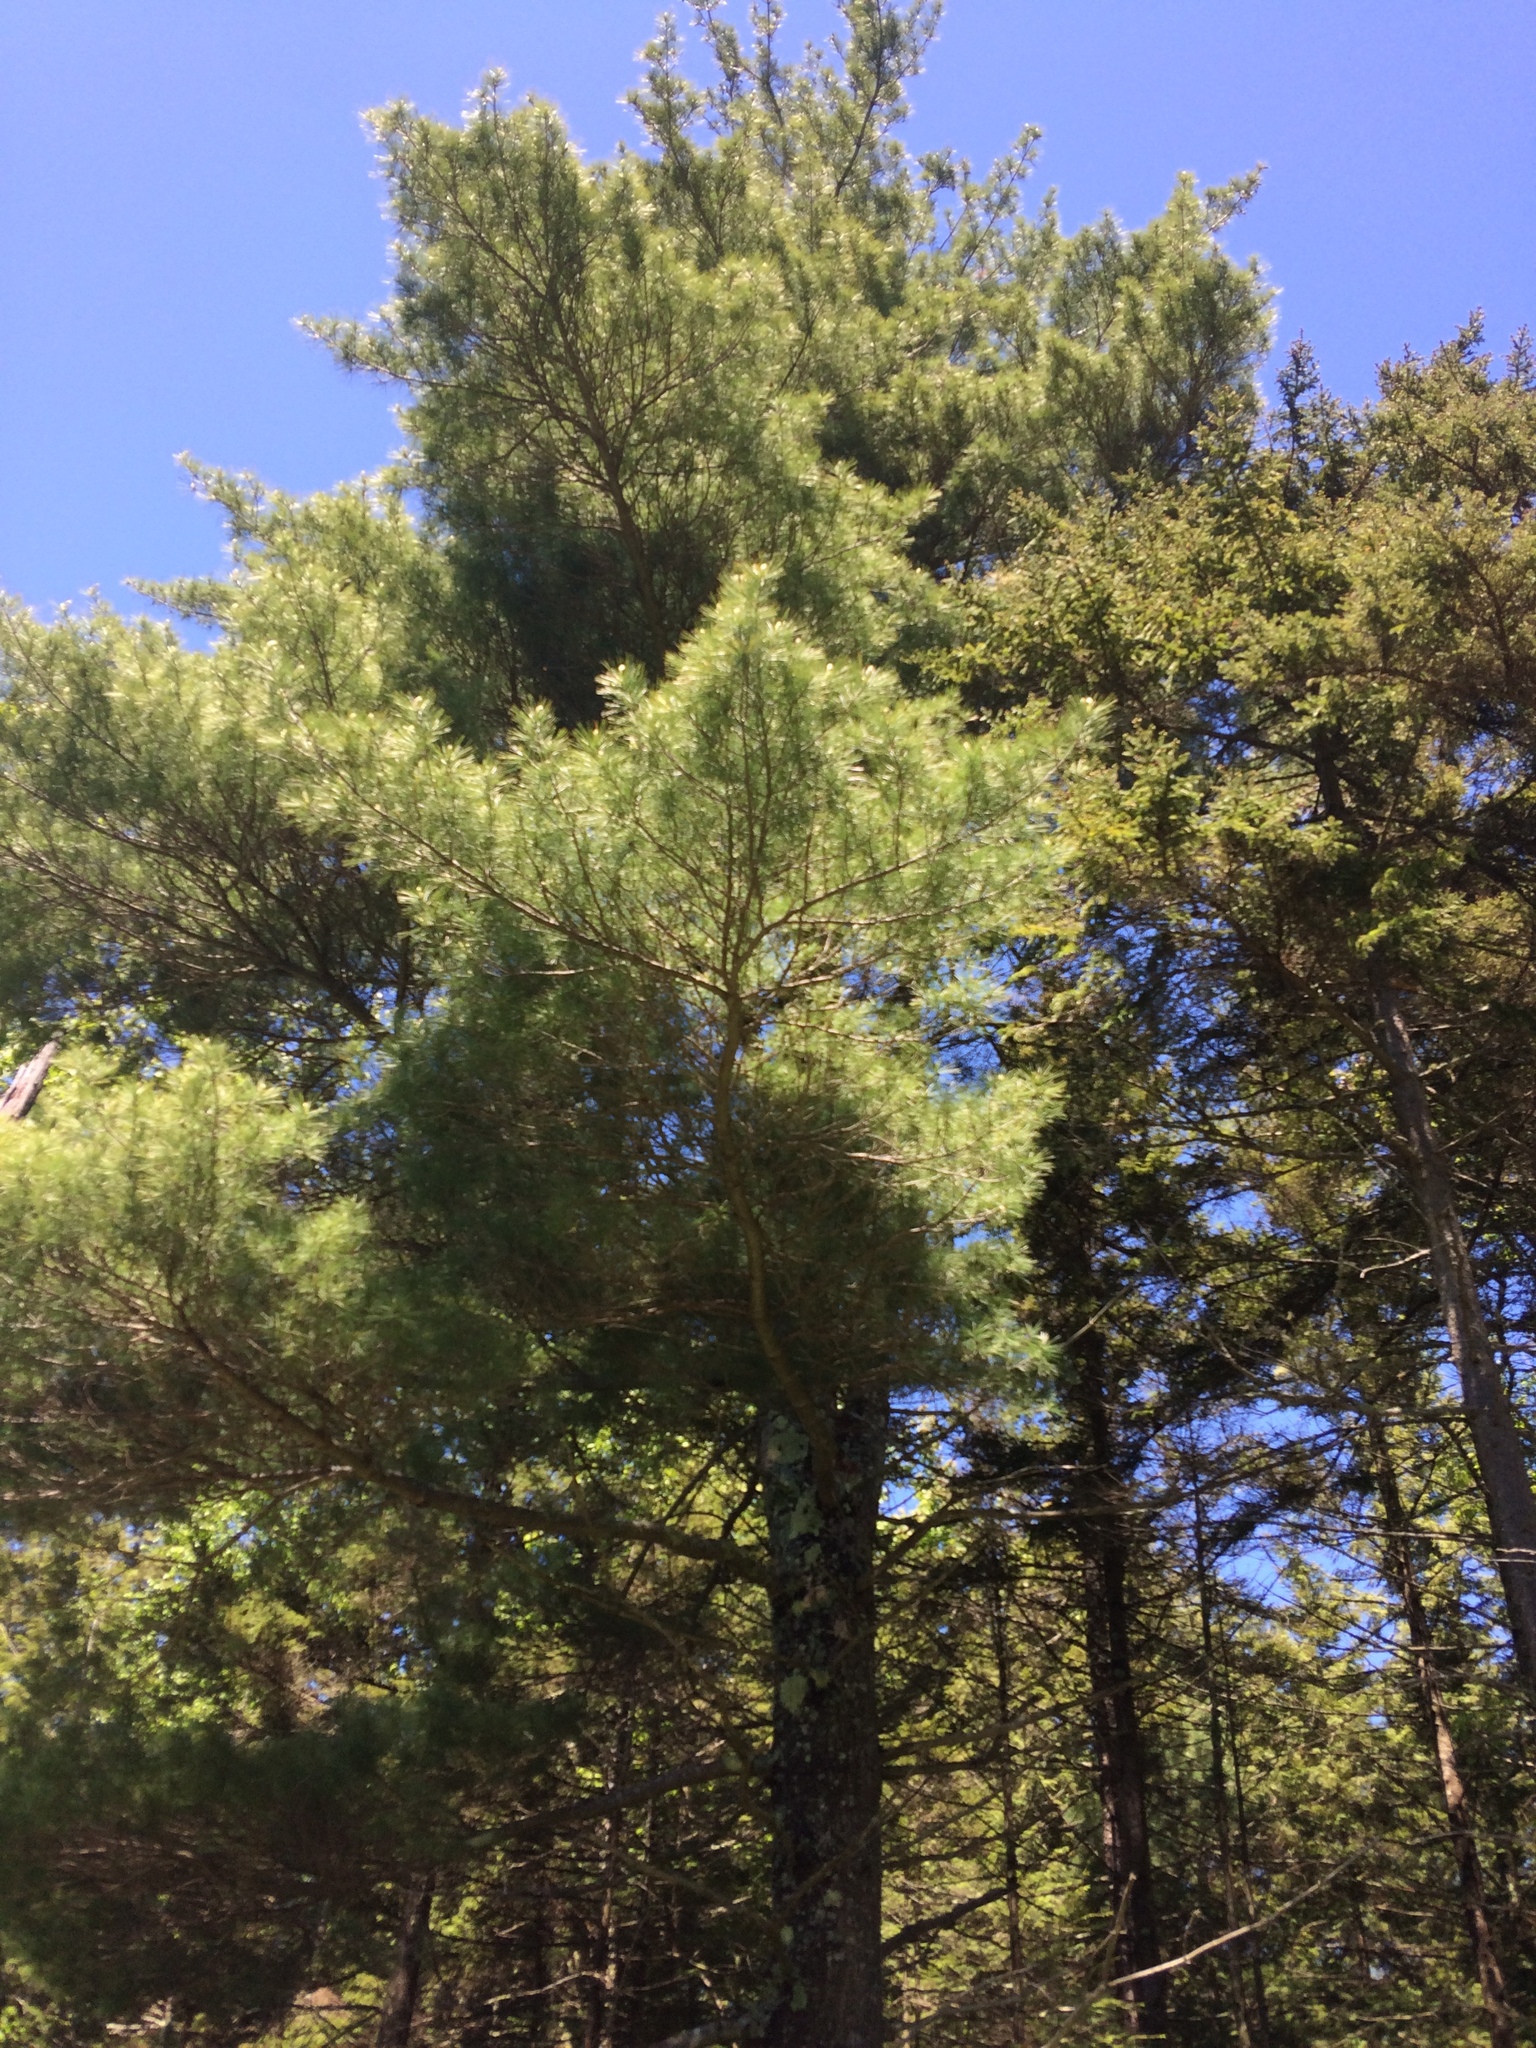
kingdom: Plantae
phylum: Tracheophyta
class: Pinopsida
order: Pinales
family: Pinaceae
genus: Pinus
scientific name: Pinus strobus
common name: Weymouth pine
